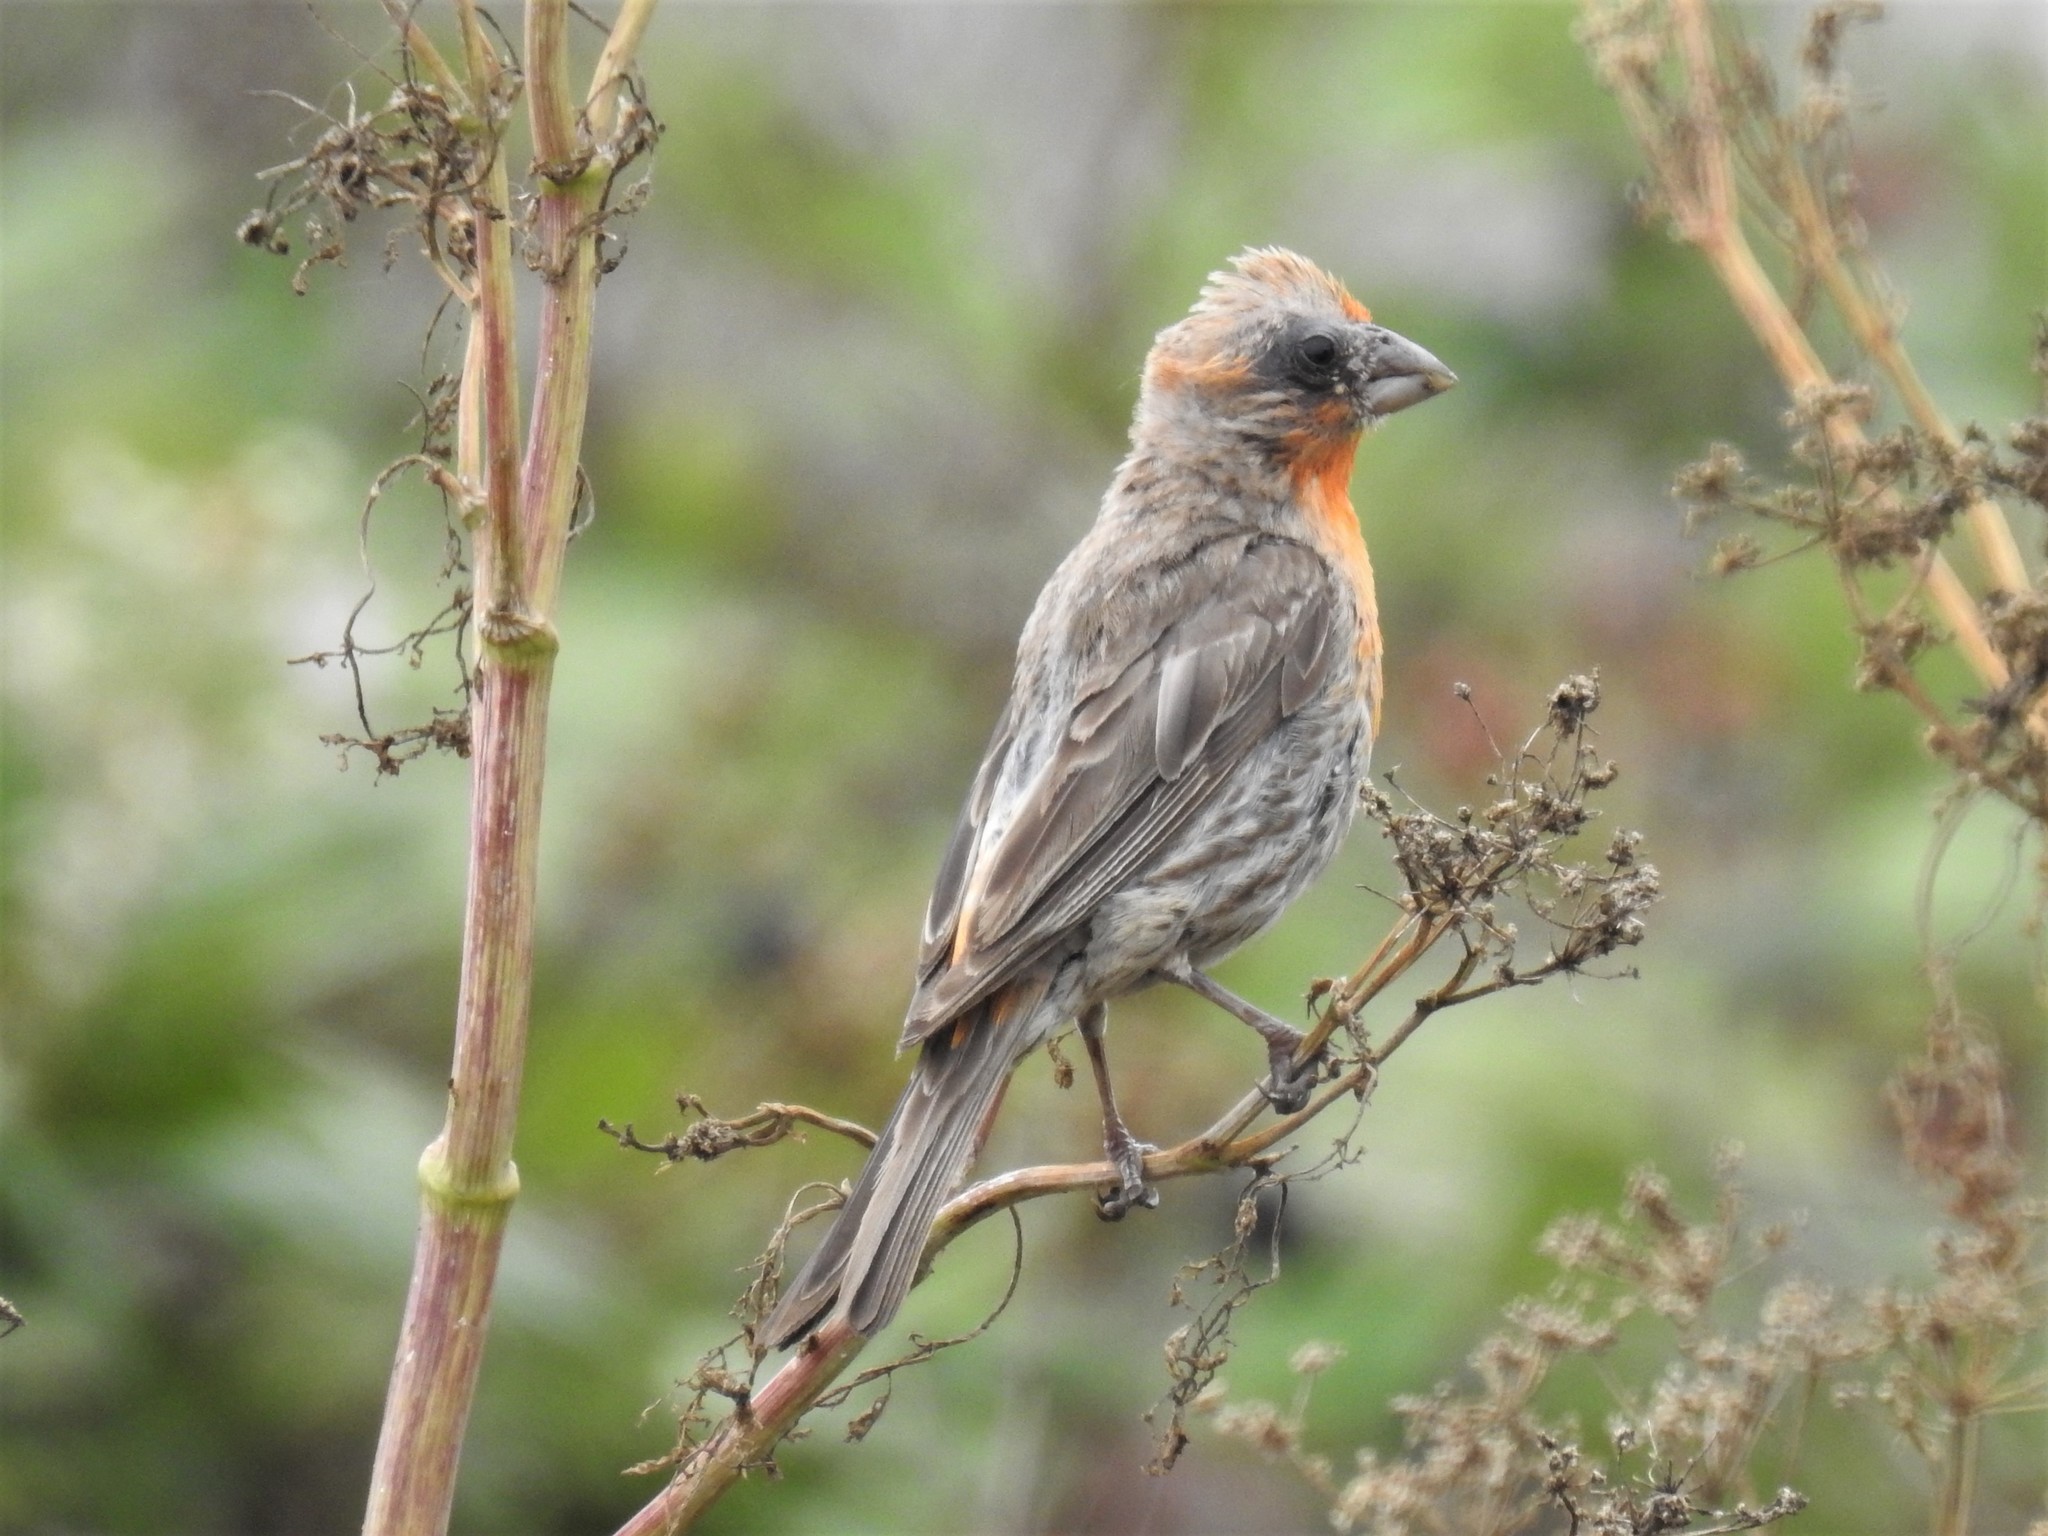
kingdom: Animalia
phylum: Chordata
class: Aves
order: Passeriformes
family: Fringillidae
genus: Haemorhous
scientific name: Haemorhous mexicanus
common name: House finch
